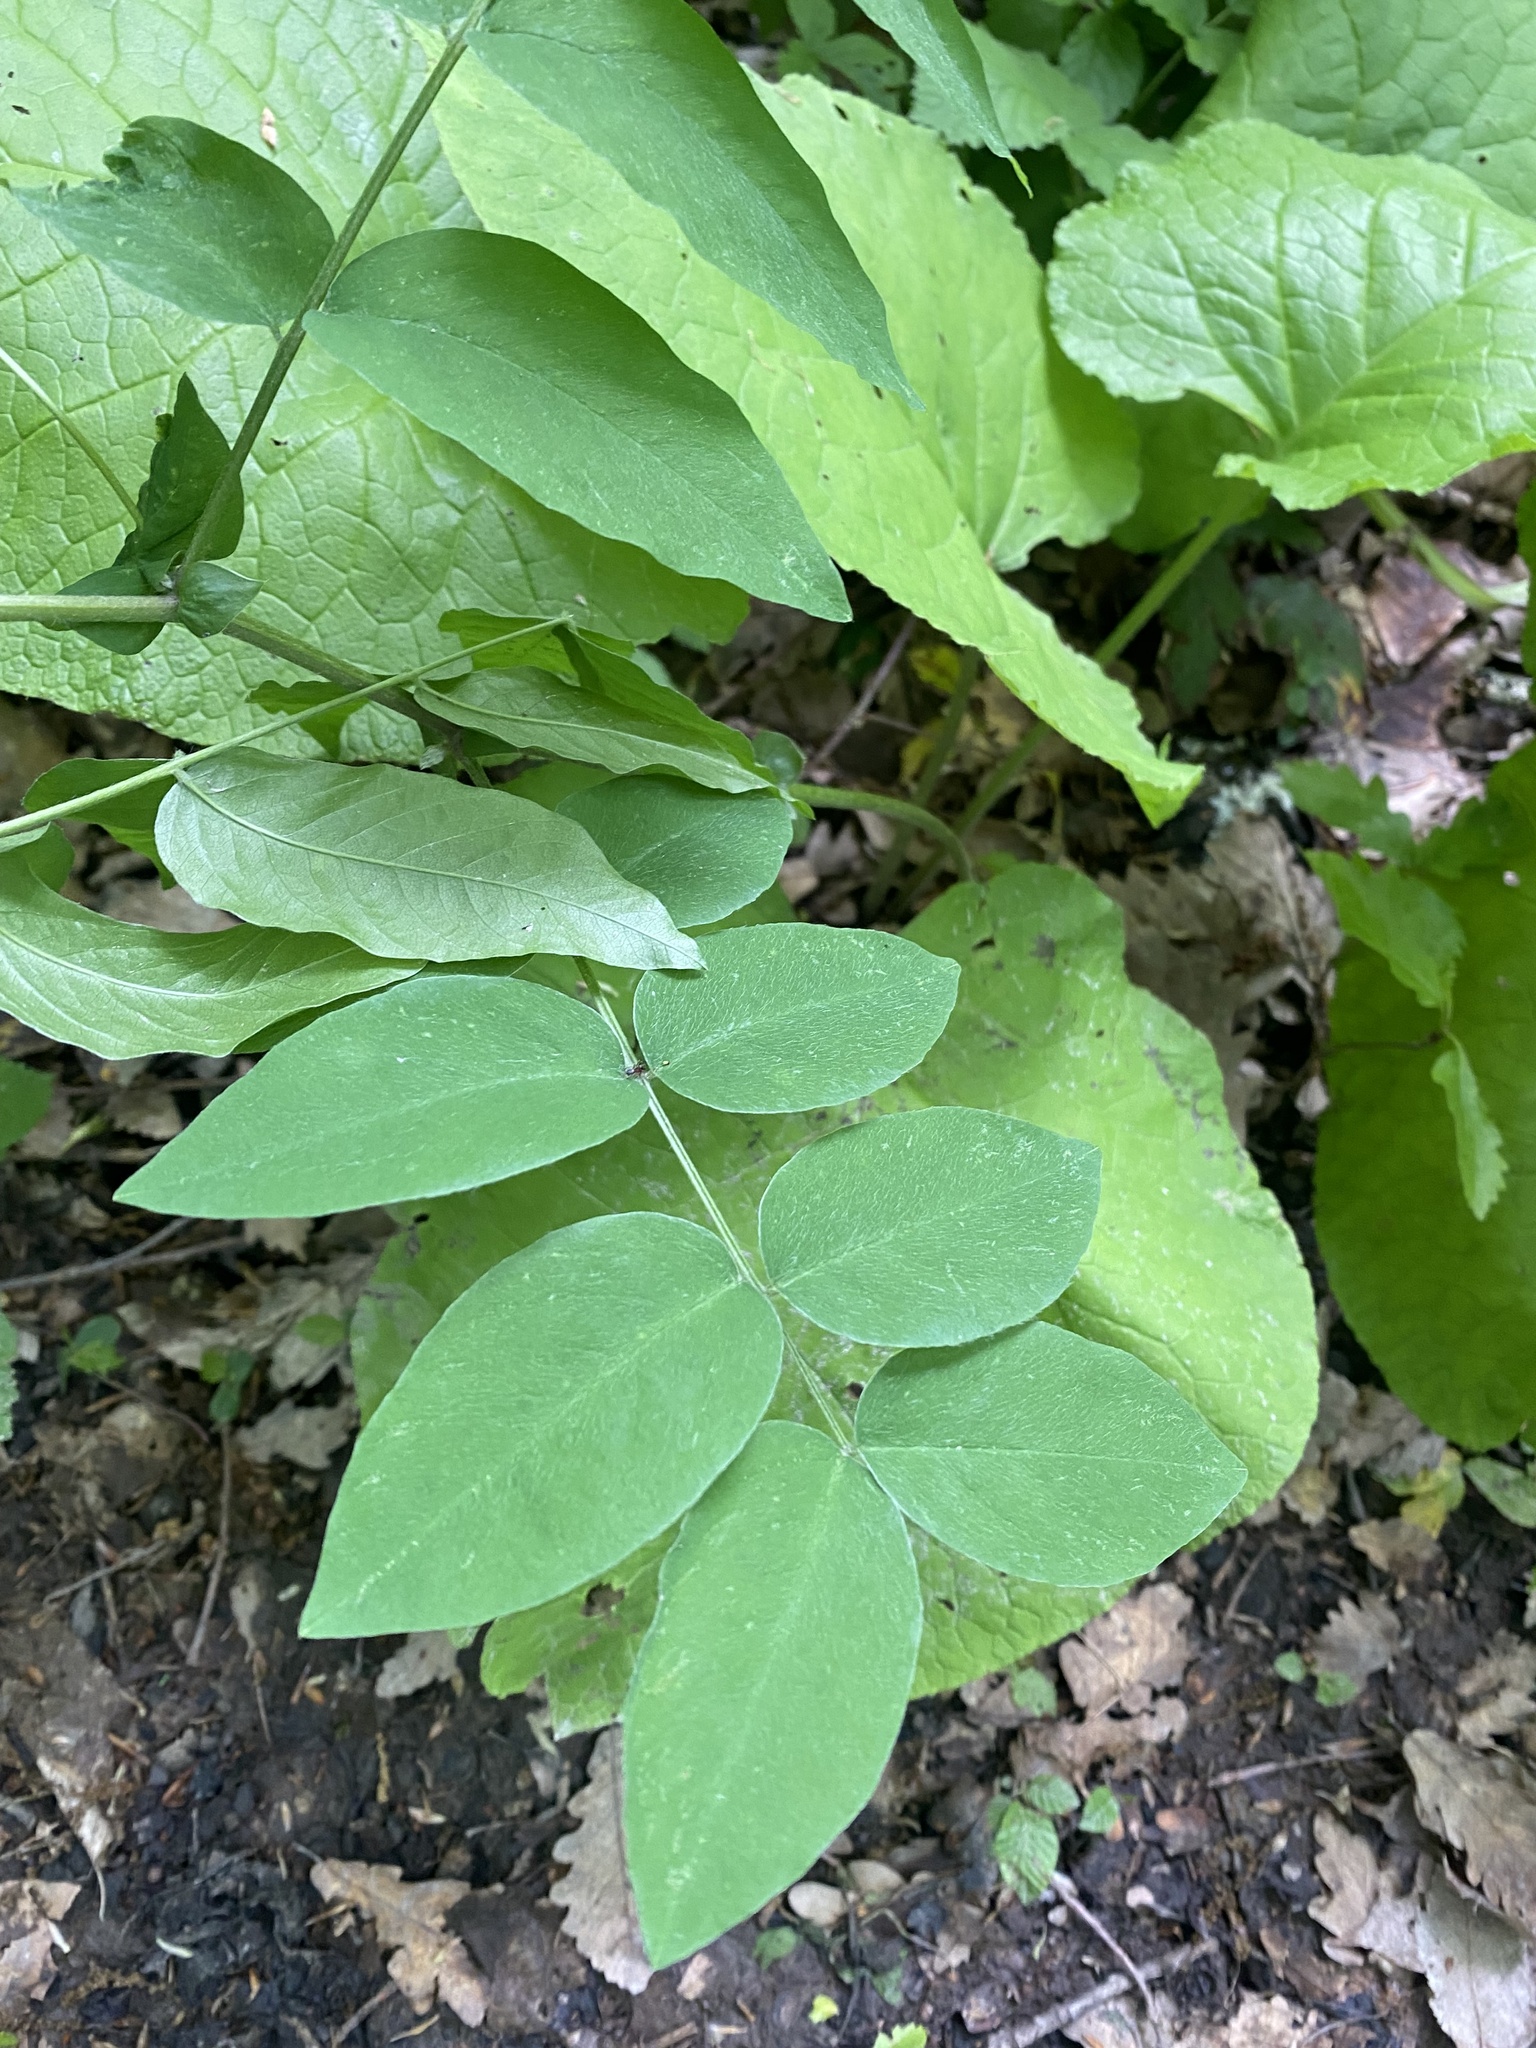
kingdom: Plantae
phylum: Tracheophyta
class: Magnoliopsida
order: Fabales
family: Fabaceae
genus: Vicia
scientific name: Vicia crocea
